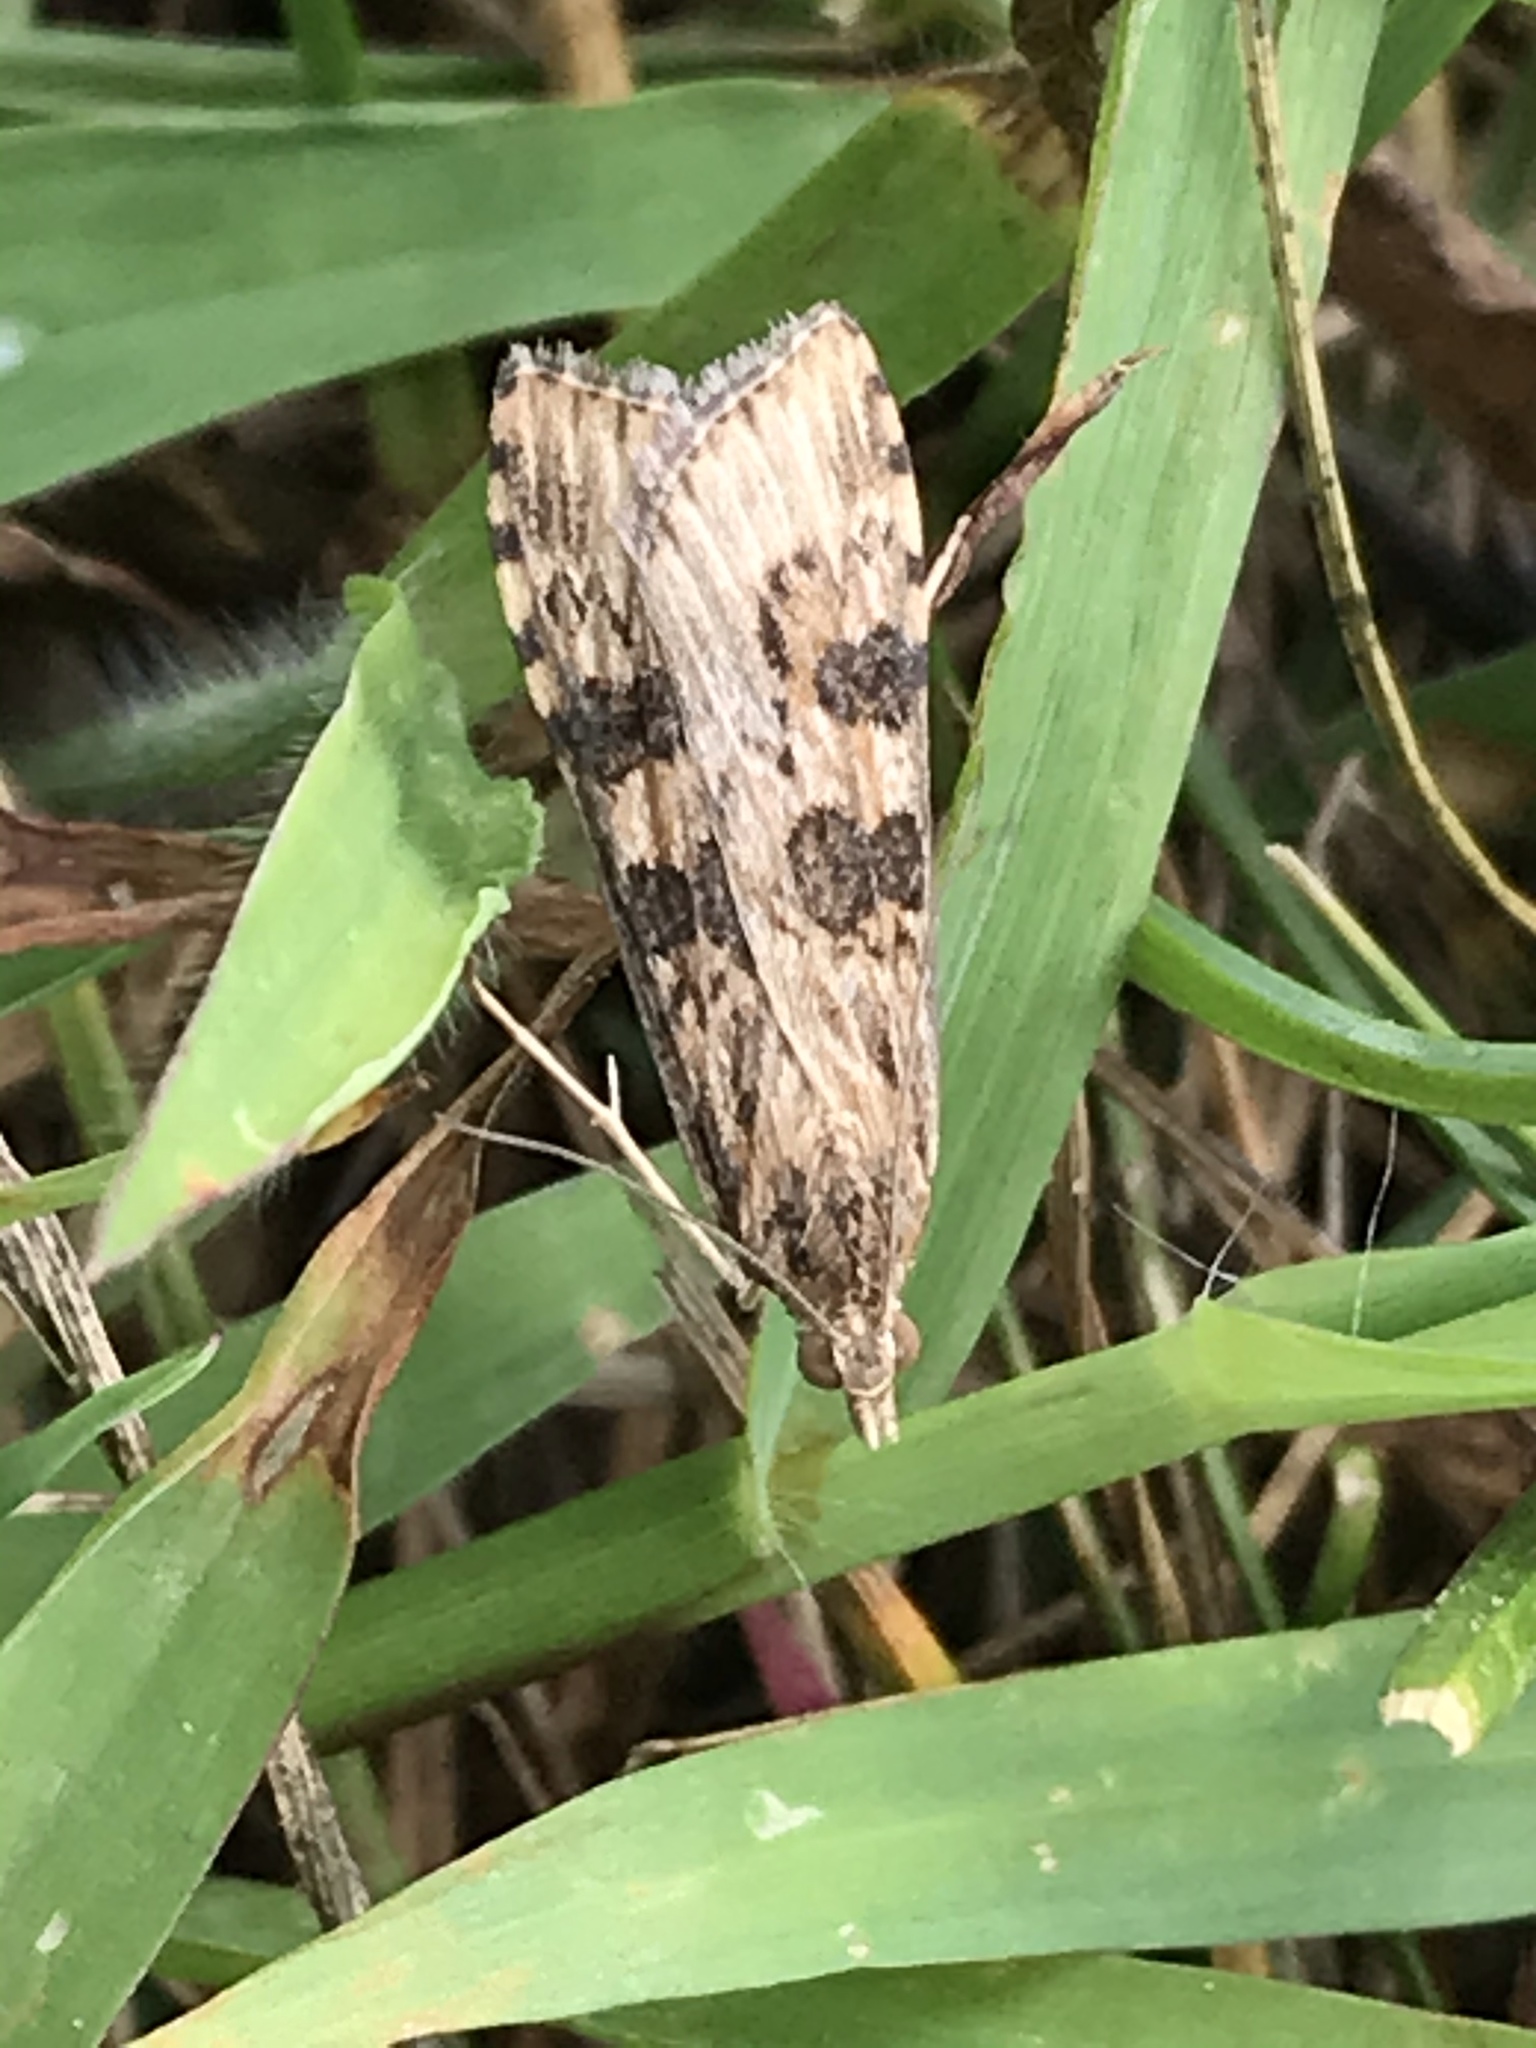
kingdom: Animalia
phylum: Arthropoda
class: Insecta
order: Lepidoptera
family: Crambidae
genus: Nomophila
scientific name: Nomophila nearctica
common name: American rush veneer
